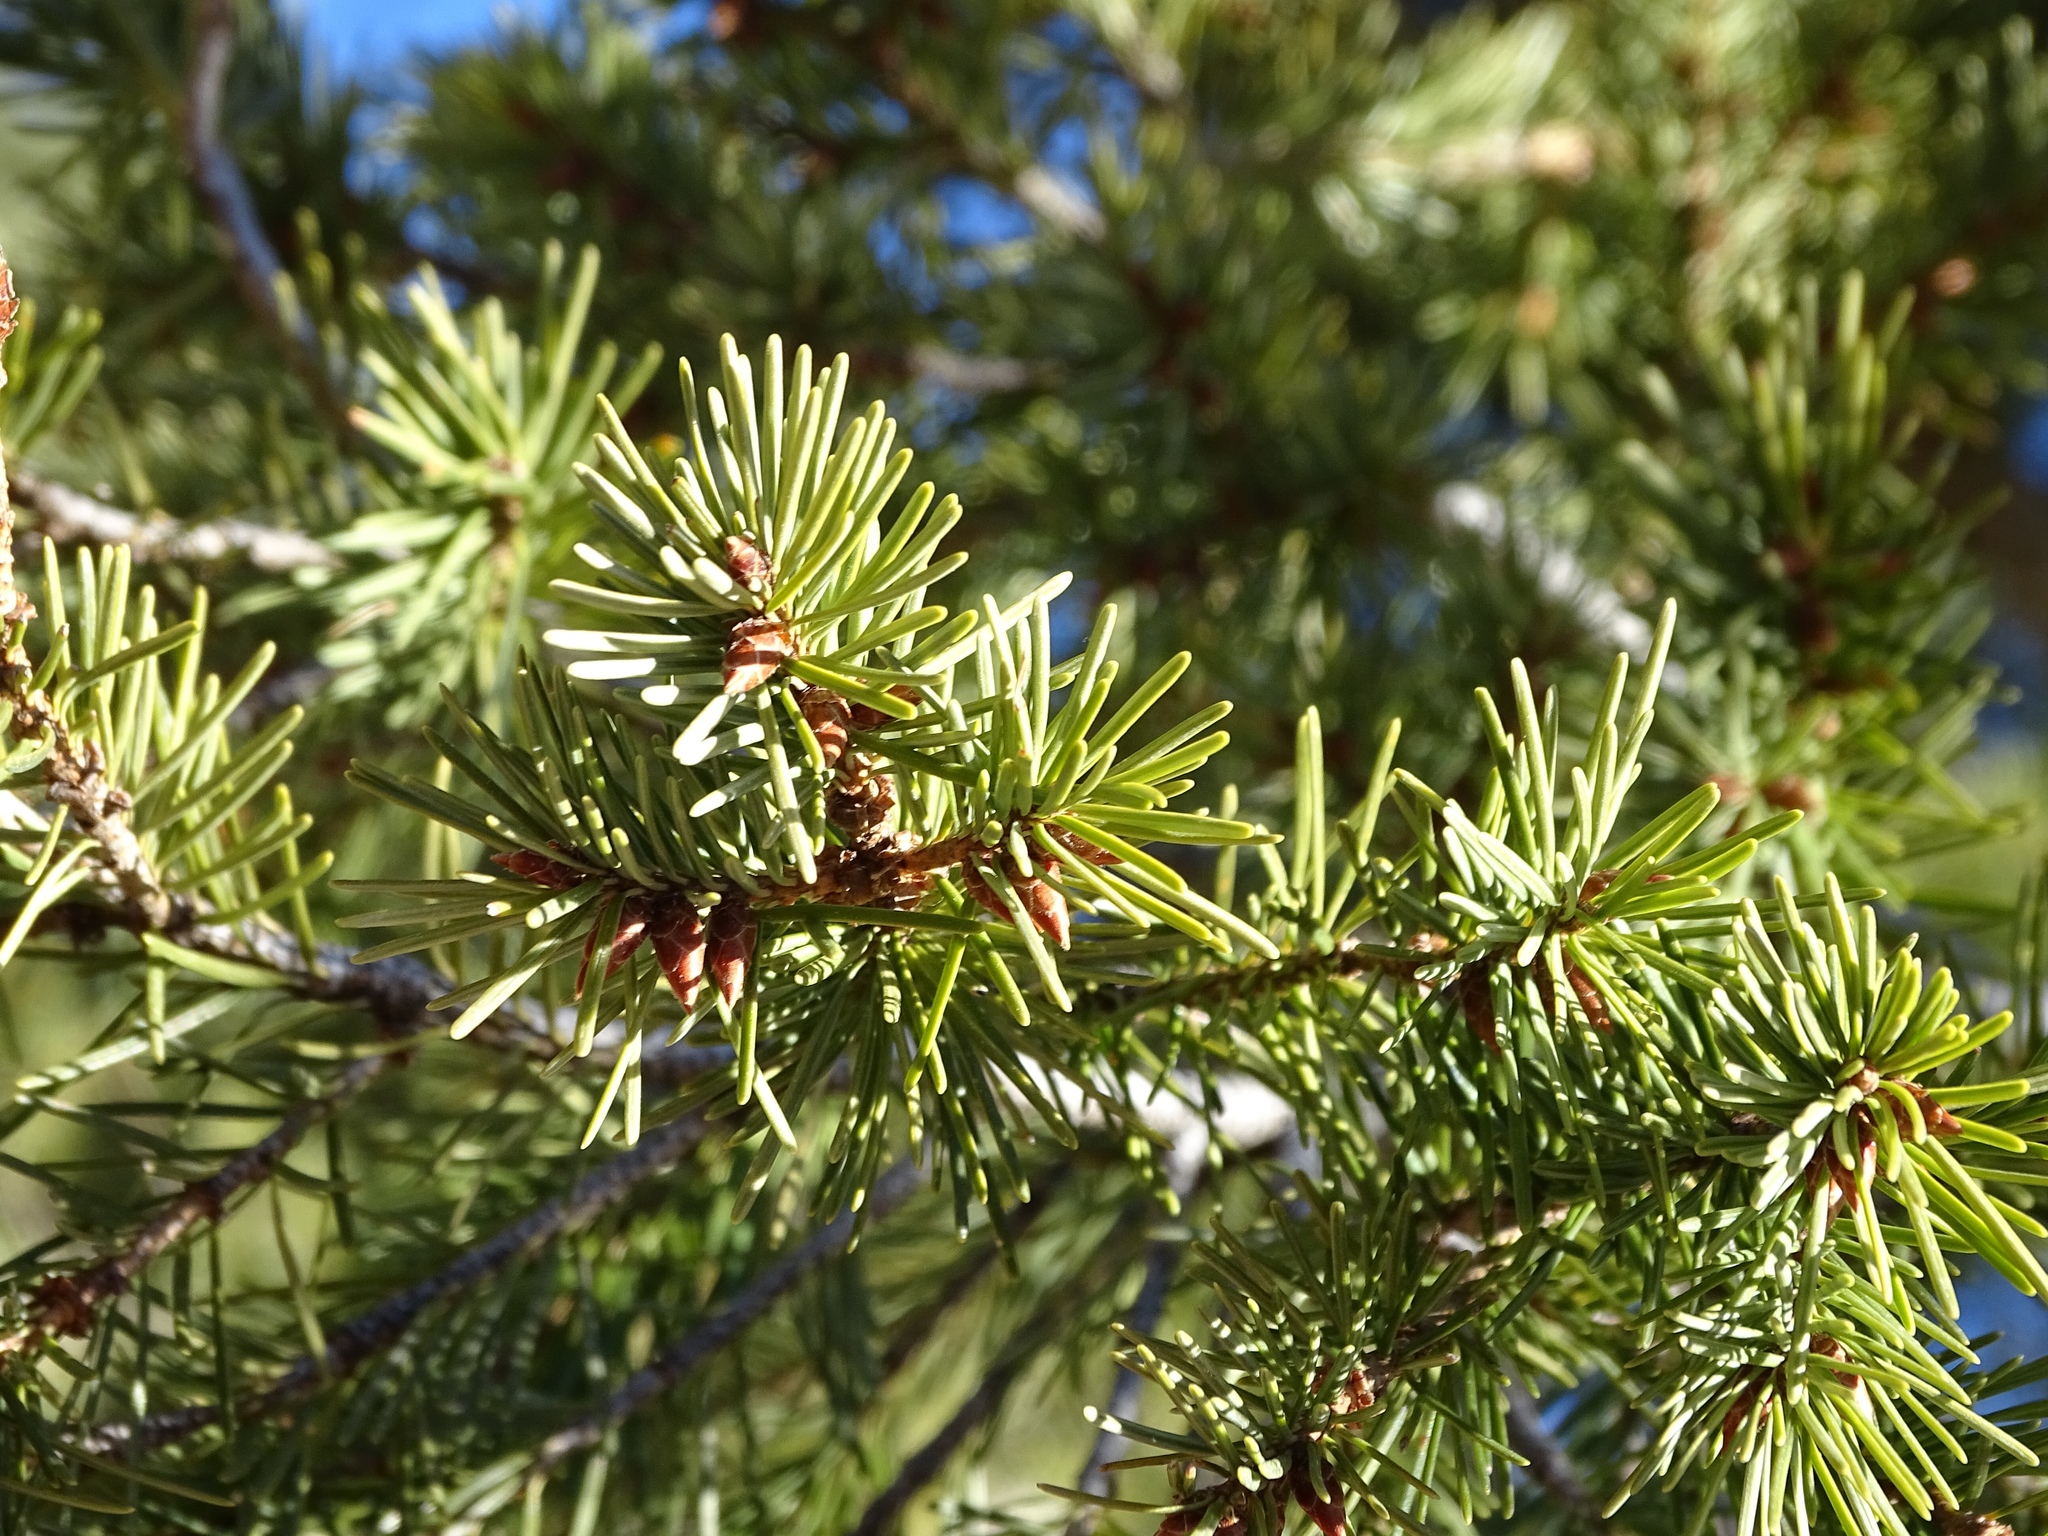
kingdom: Plantae
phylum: Tracheophyta
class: Pinopsida
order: Pinales
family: Pinaceae
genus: Pseudotsuga
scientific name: Pseudotsuga menziesii
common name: Douglas fir
